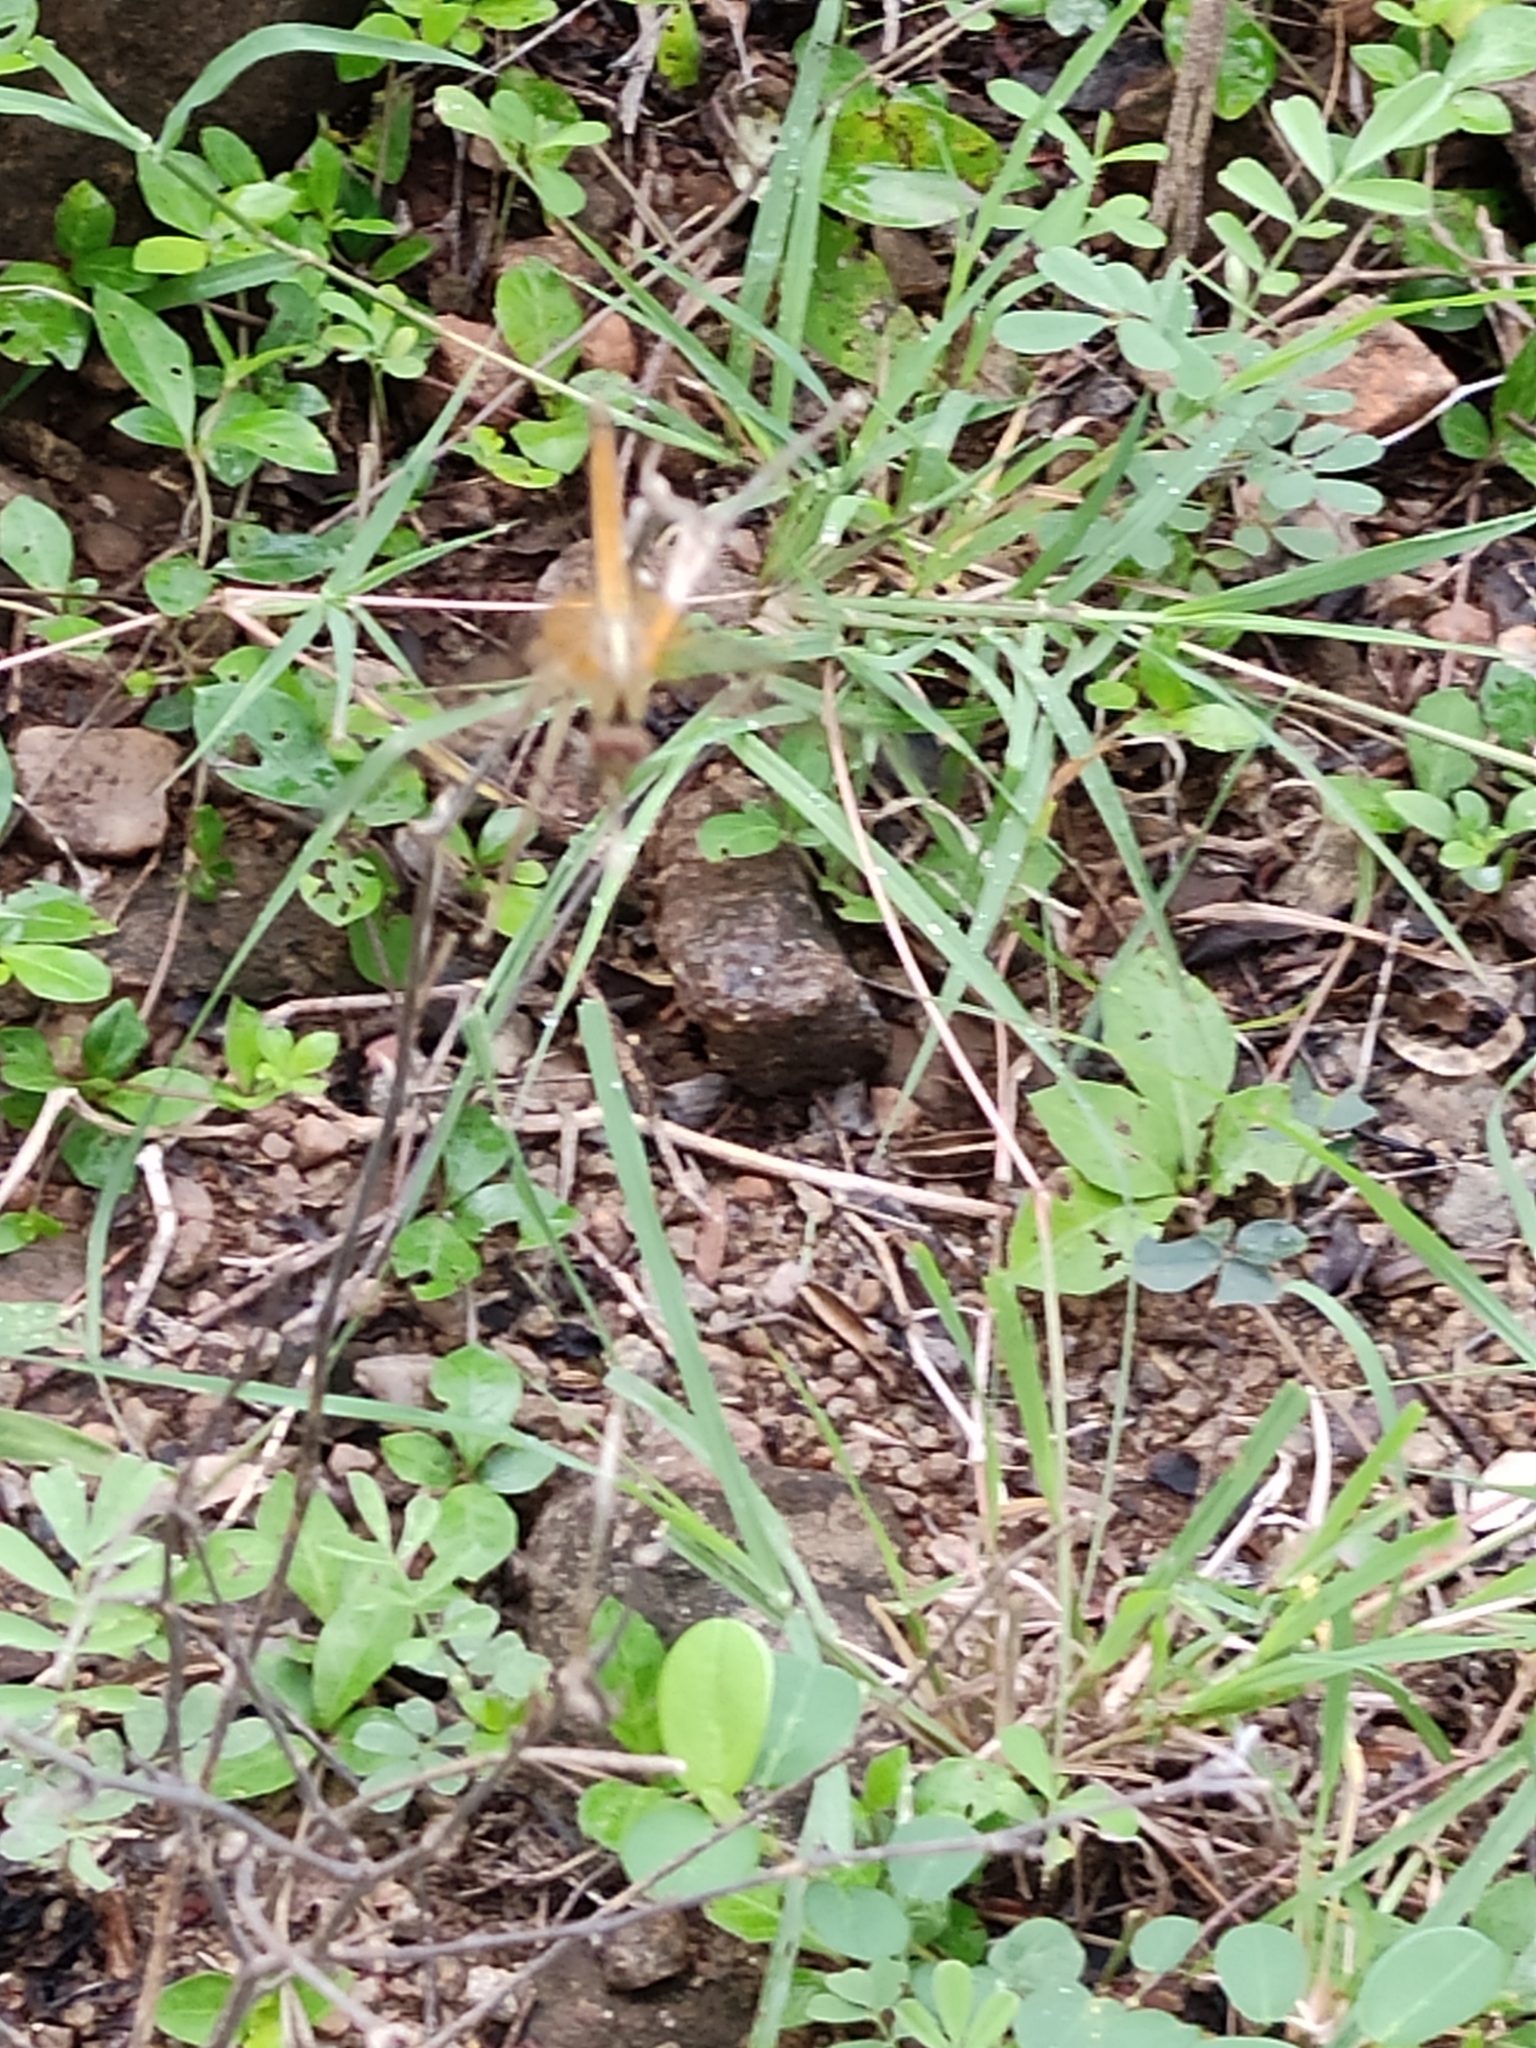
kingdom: Animalia
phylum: Arthropoda
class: Insecta
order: Odonata
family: Libellulidae
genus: Trithemis
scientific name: Trithemis aurora
